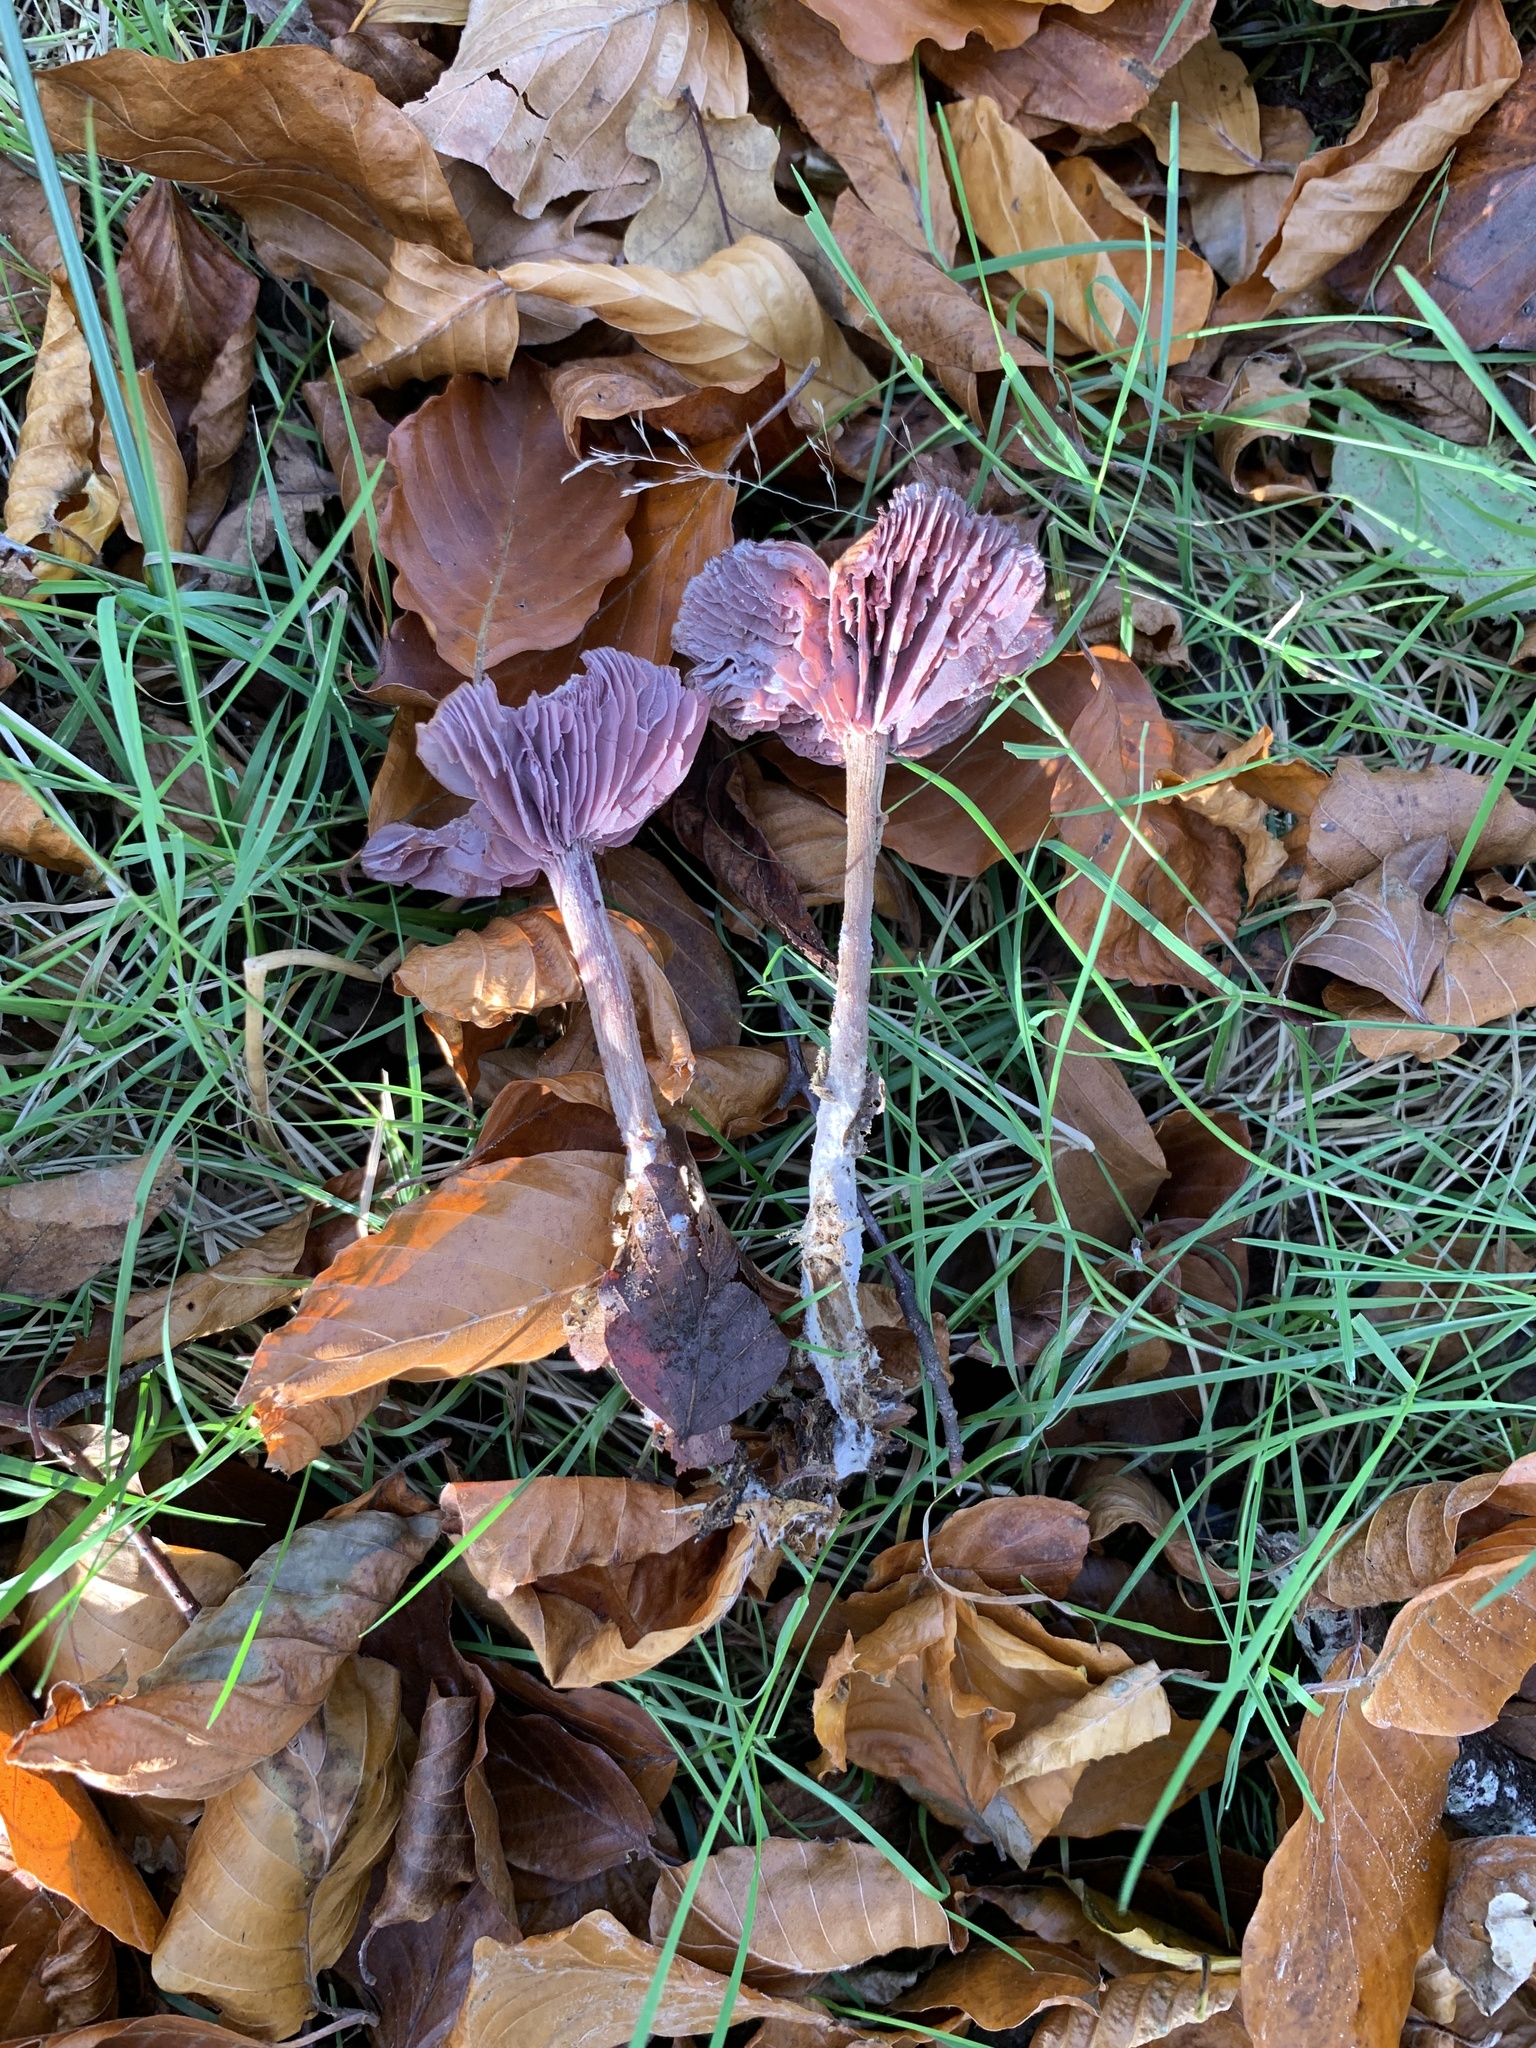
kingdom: Fungi
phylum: Basidiomycota
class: Agaricomycetes
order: Agaricales
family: Hydnangiaceae
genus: Laccaria
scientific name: Laccaria amethystina
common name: Amethyst deceiver
